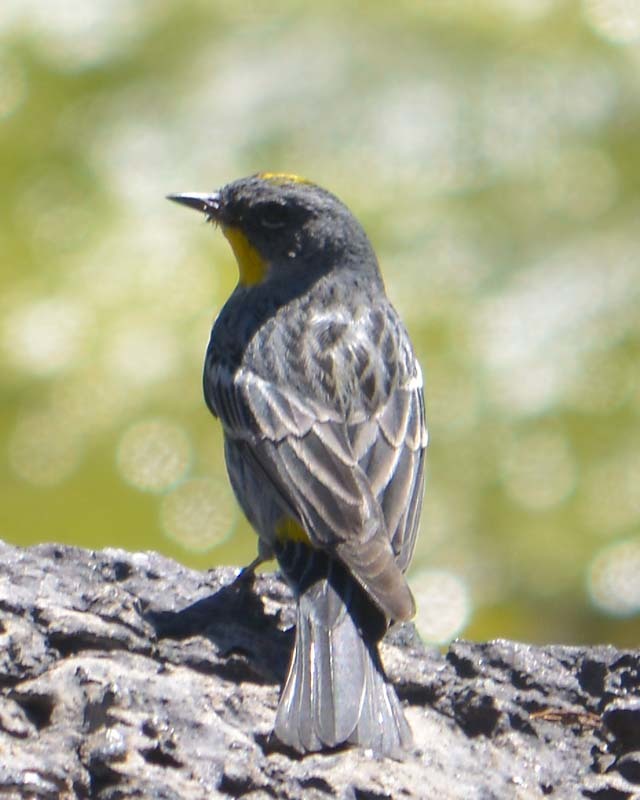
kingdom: Animalia
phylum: Chordata
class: Aves
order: Passeriformes
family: Parulidae
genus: Setophaga
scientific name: Setophaga auduboni
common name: Audubon's warbler
